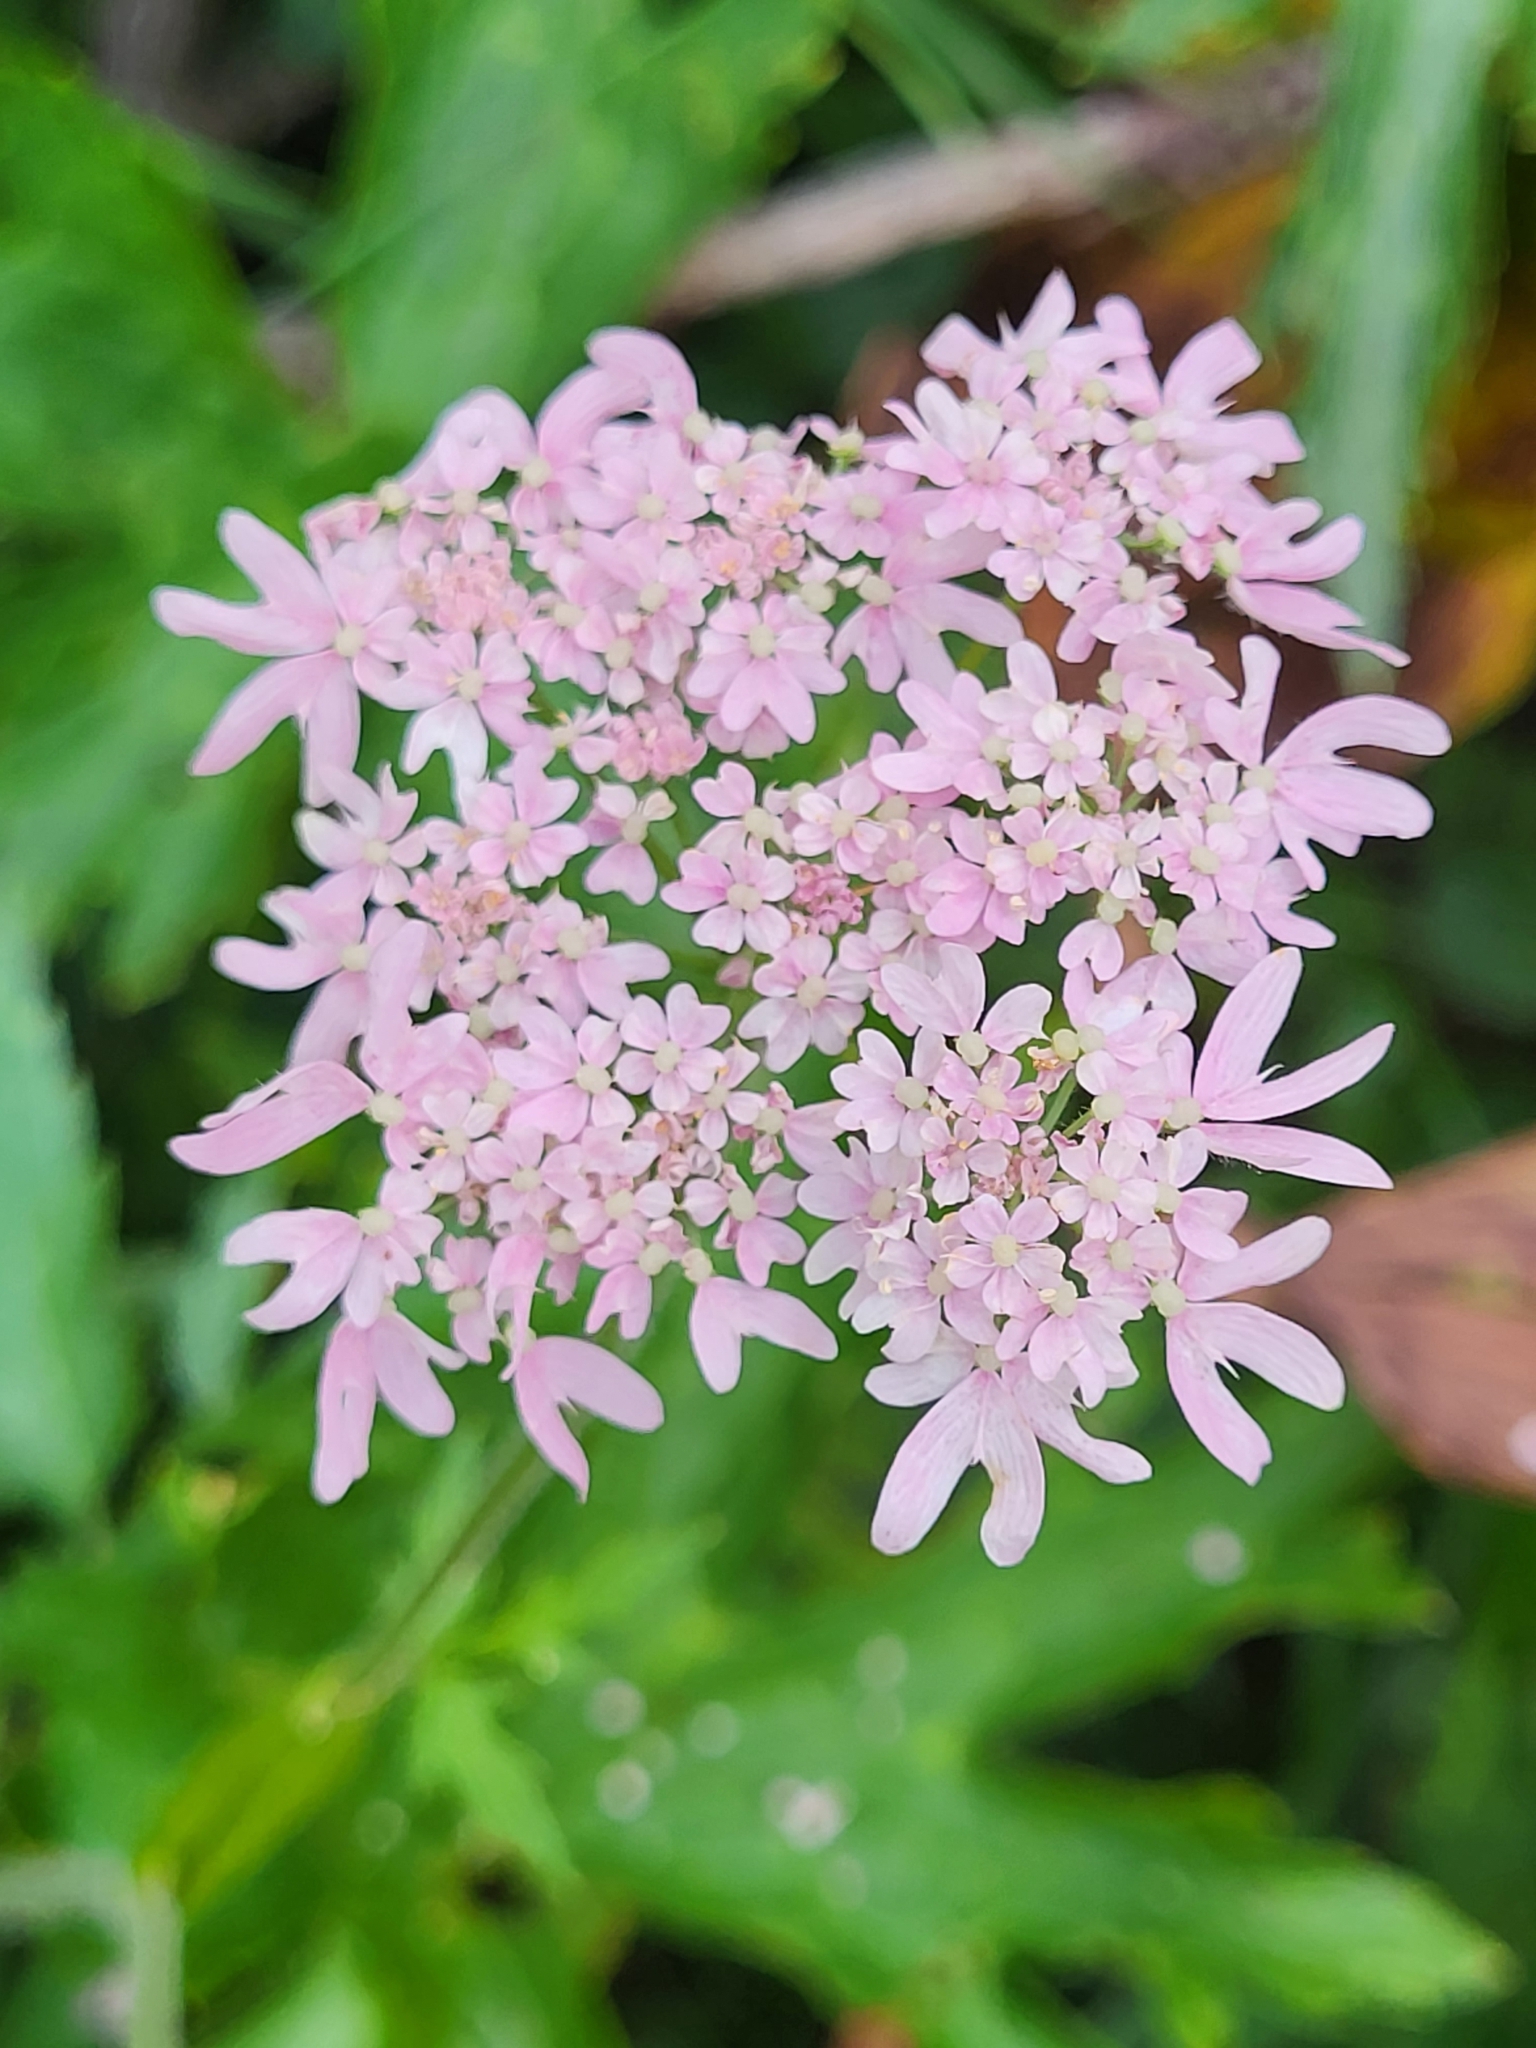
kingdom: Plantae
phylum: Tracheophyta
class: Magnoliopsida
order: Apiales
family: Apiaceae
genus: Heracleum
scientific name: Heracleum austriacum
